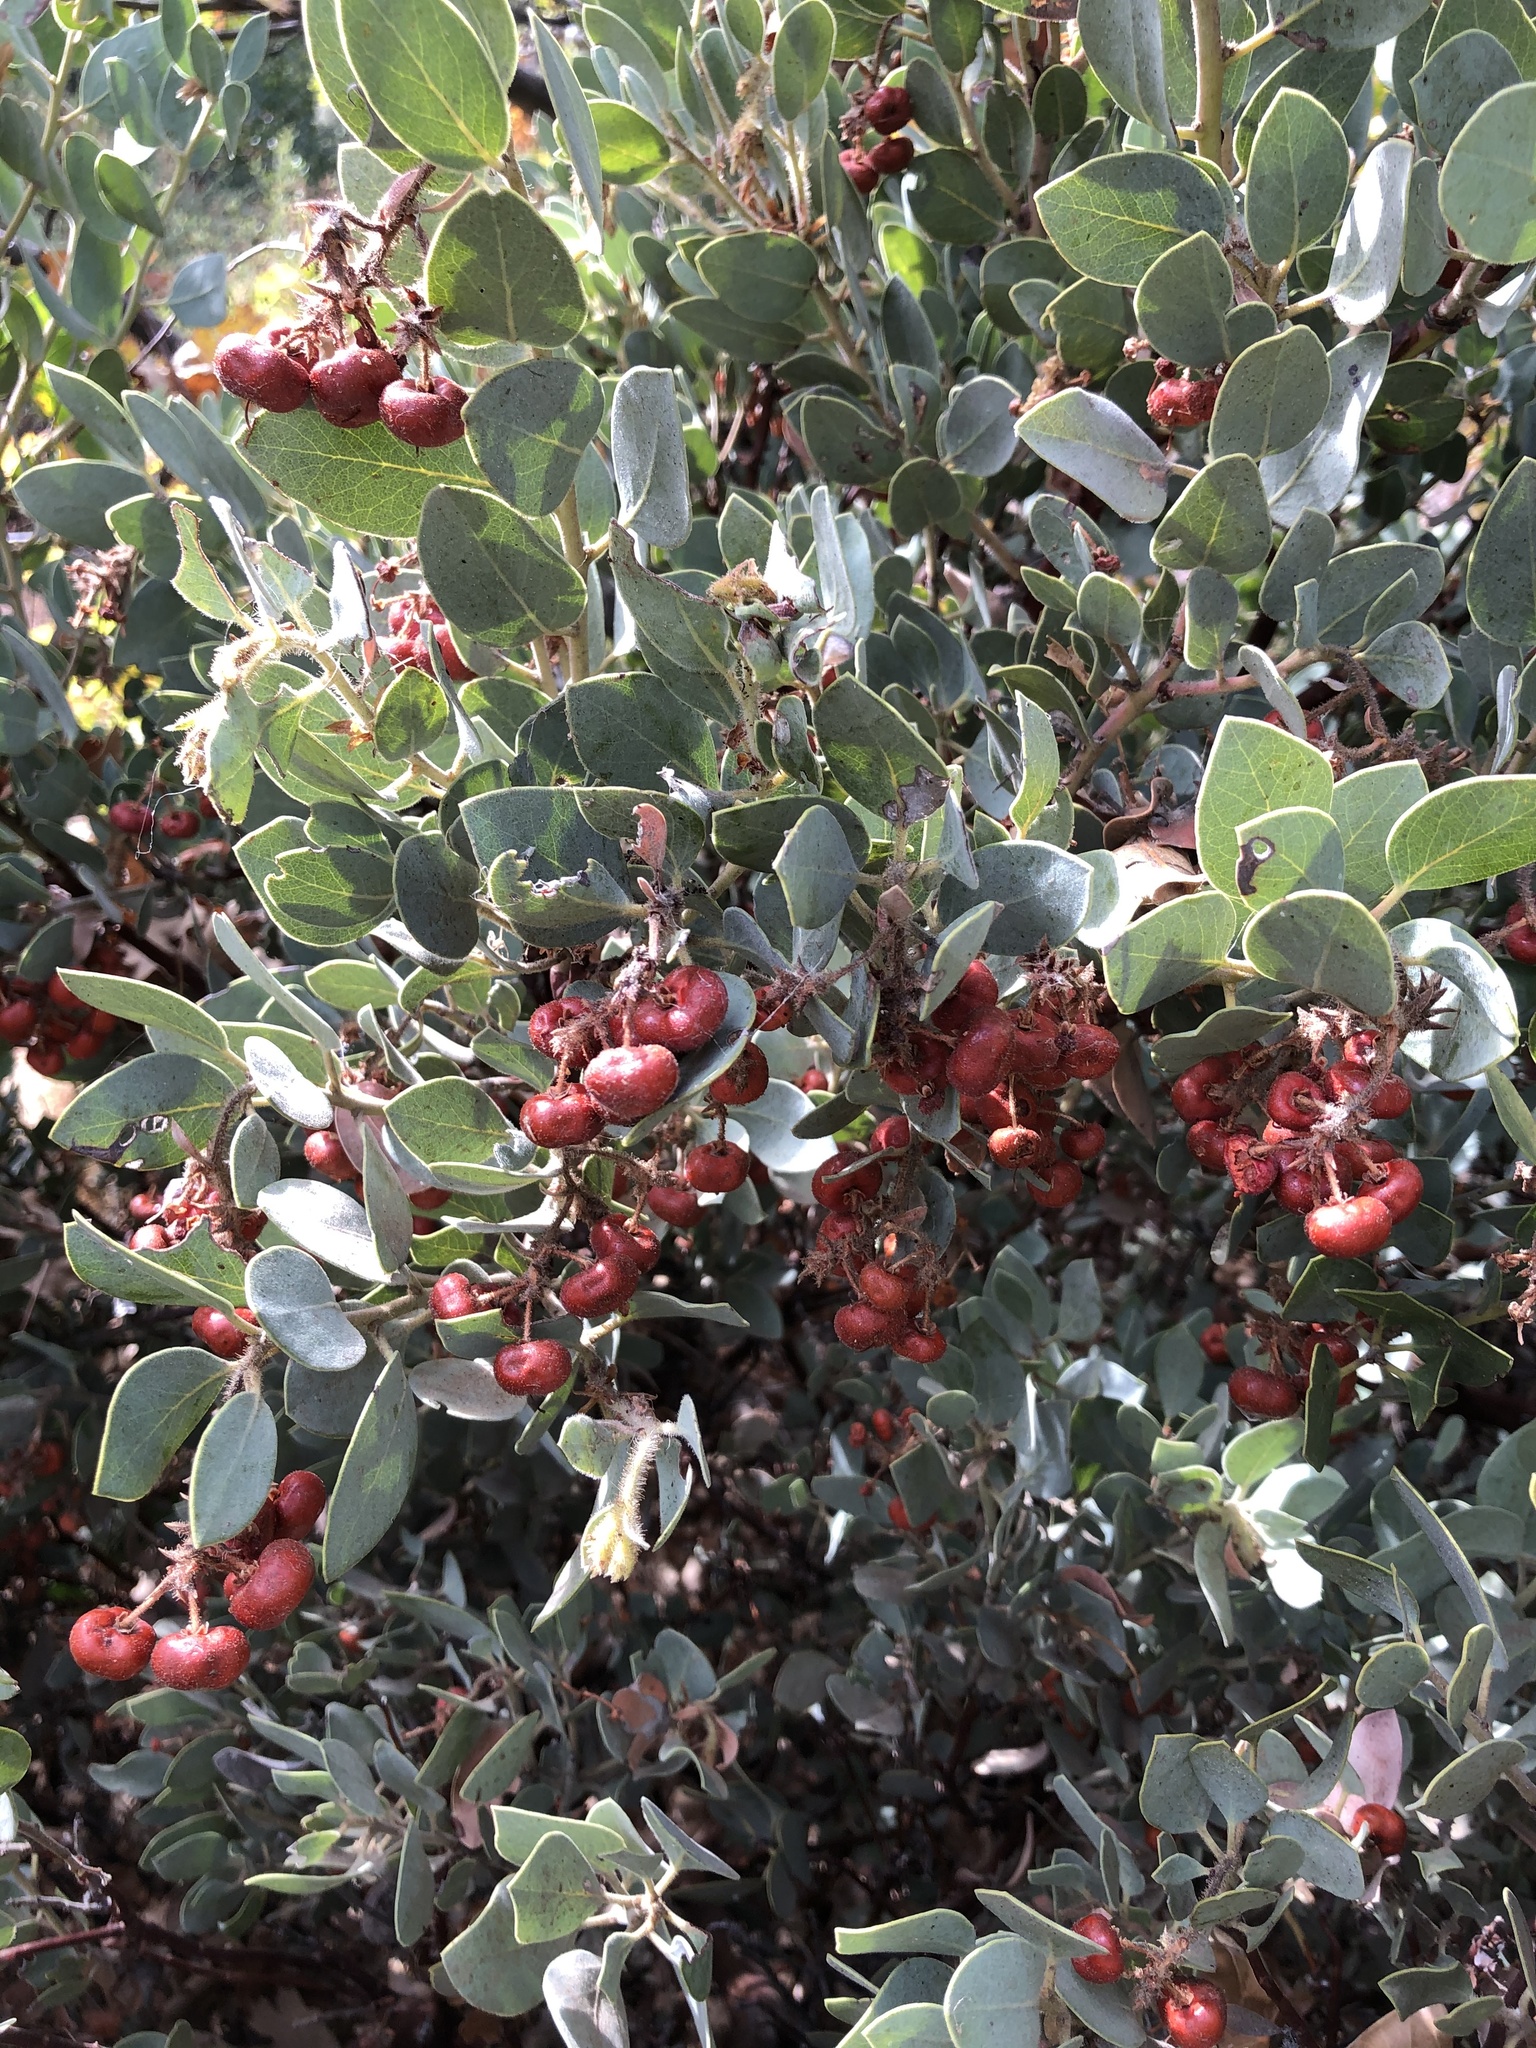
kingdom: Plantae
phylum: Tracheophyta
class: Magnoliopsida
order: Ericales
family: Ericaceae
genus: Arctostaphylos
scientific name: Arctostaphylos glandulosa
